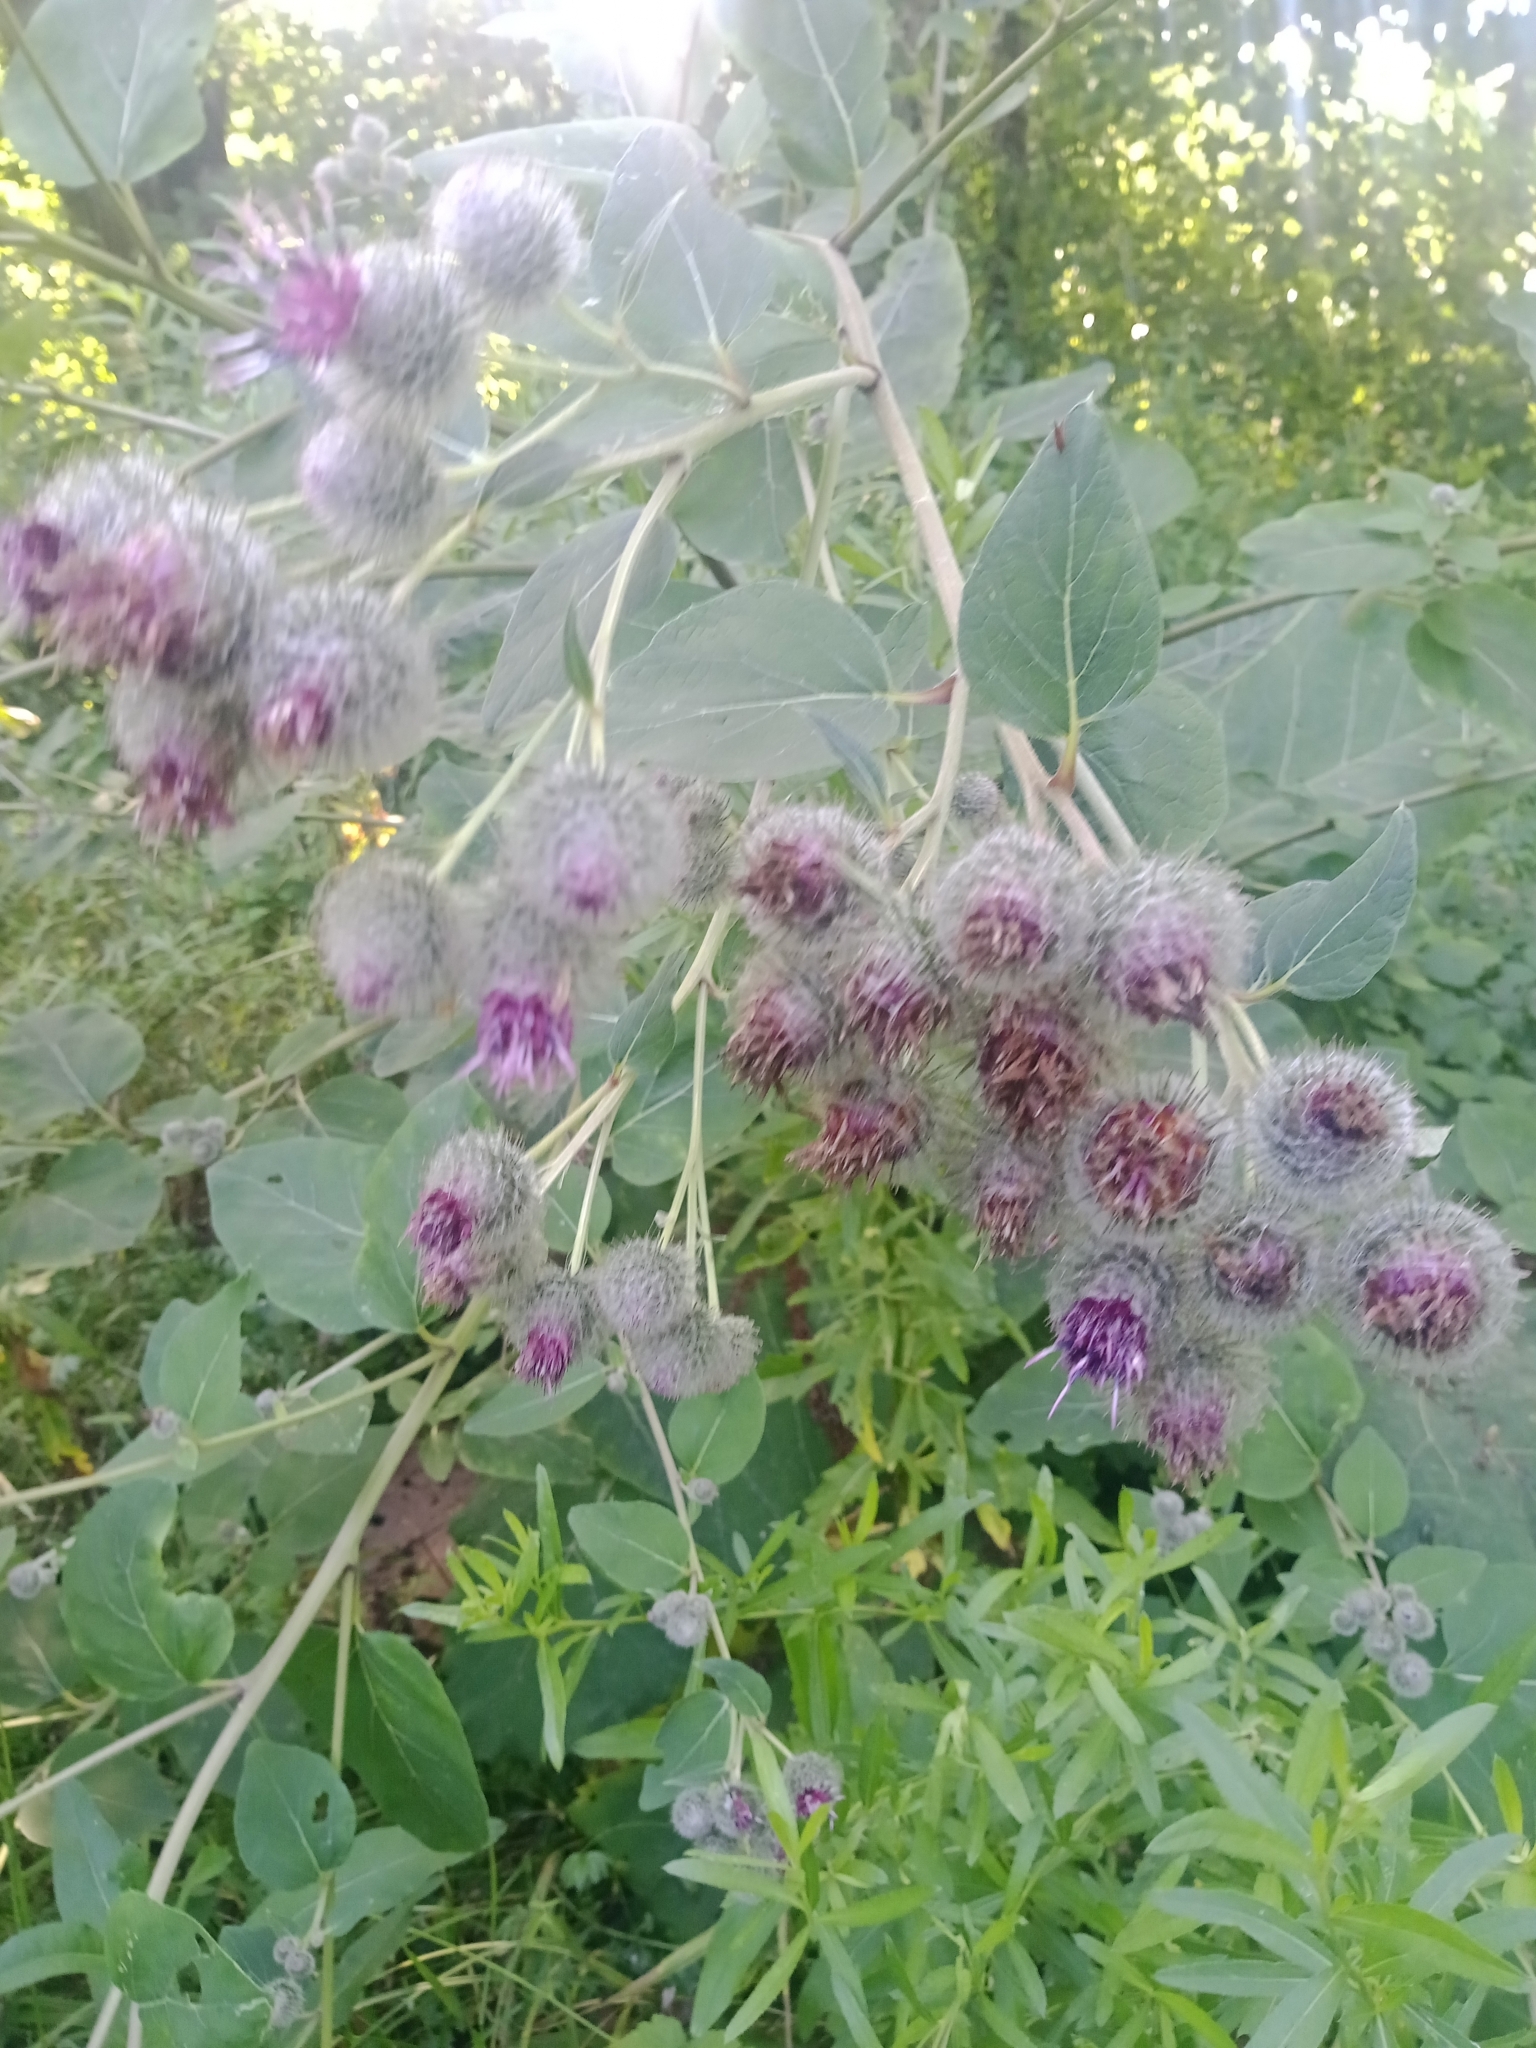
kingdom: Plantae
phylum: Tracheophyta
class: Magnoliopsida
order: Asterales
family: Asteraceae
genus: Arctium
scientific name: Arctium tomentosum
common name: Woolly burdock
